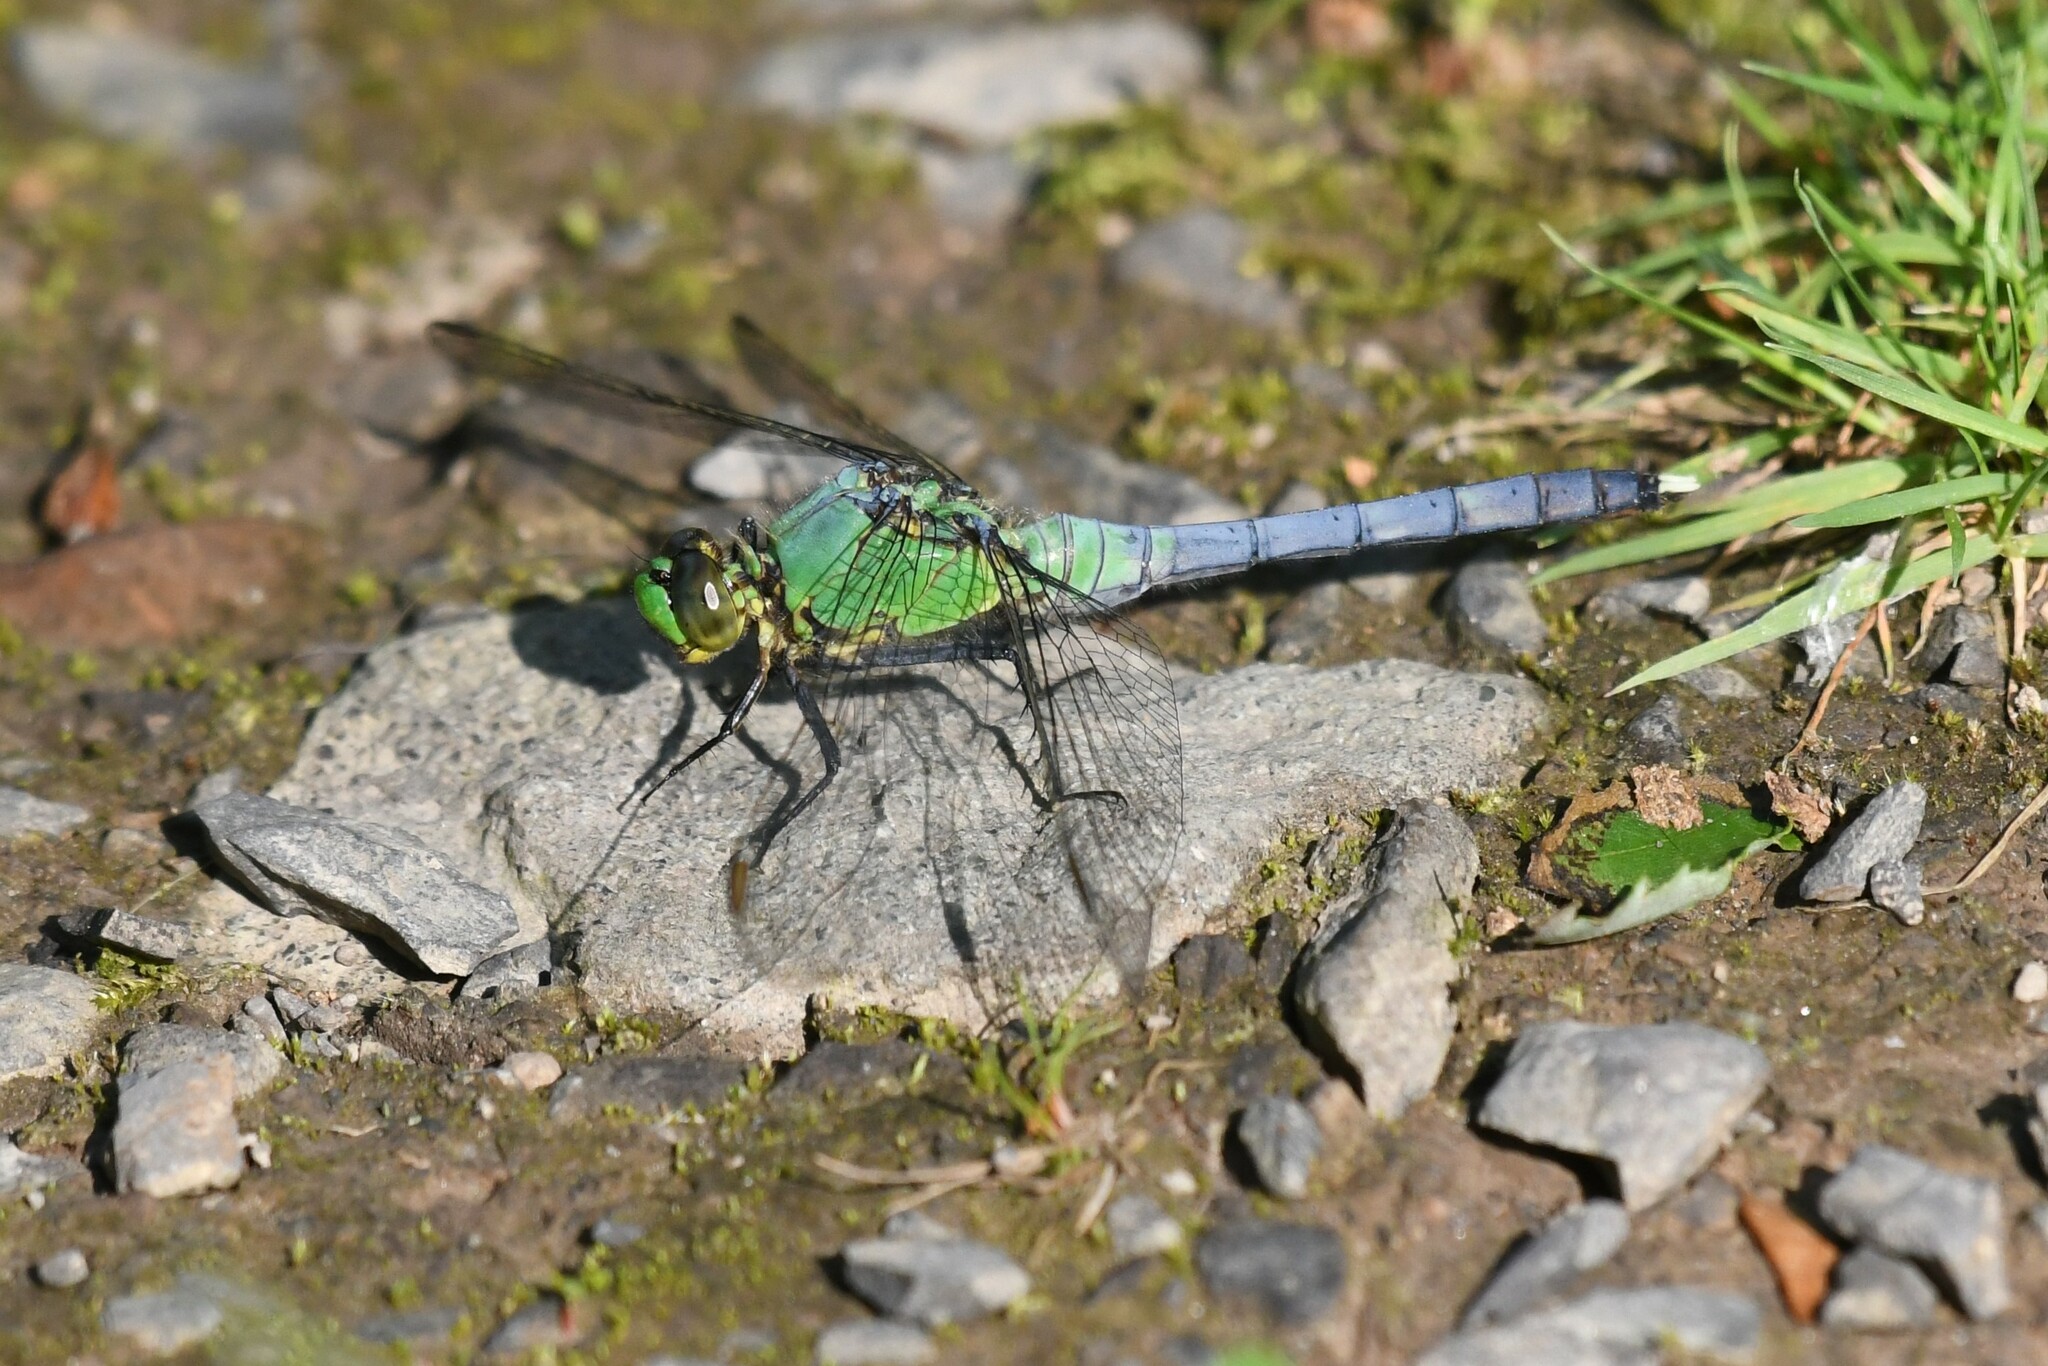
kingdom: Animalia
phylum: Arthropoda
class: Insecta
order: Odonata
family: Libellulidae
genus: Erythemis
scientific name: Erythemis simplicicollis
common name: Eastern pondhawk
